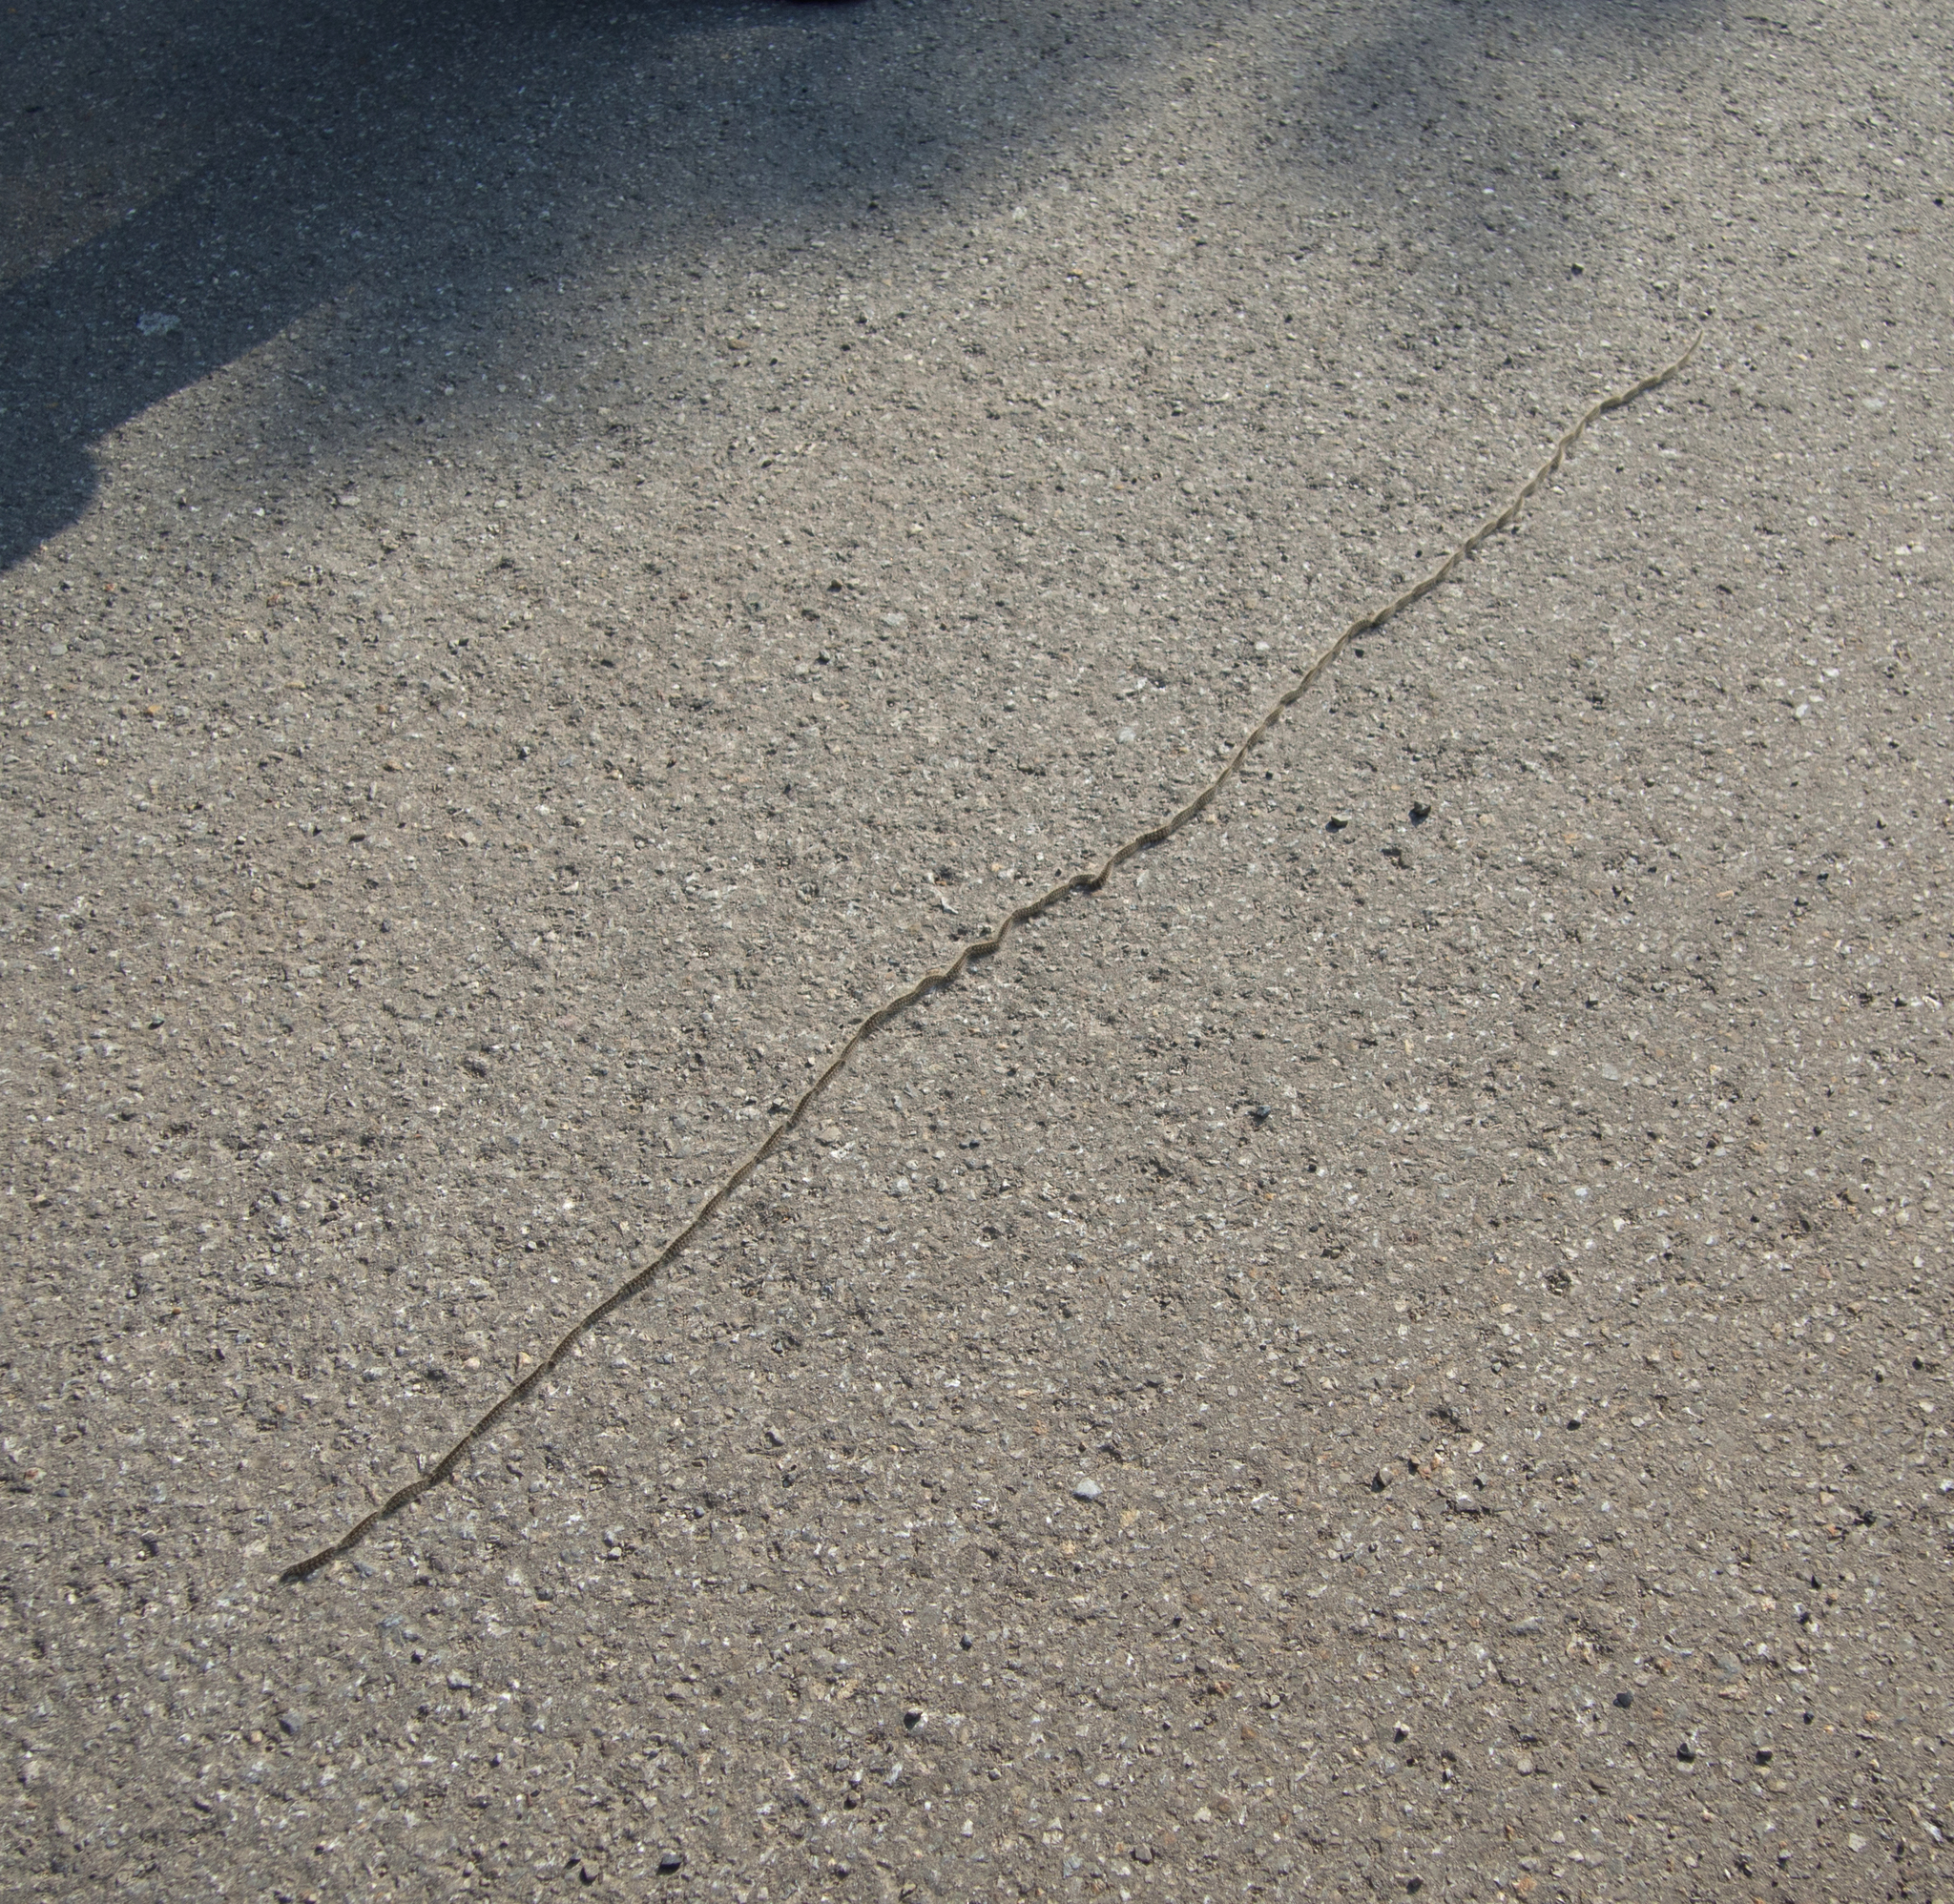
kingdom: Animalia
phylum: Arthropoda
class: Insecta
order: Lepidoptera
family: Notodontidae
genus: Thaumetopoea
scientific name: Thaumetopoea processionea
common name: Oak processionea
